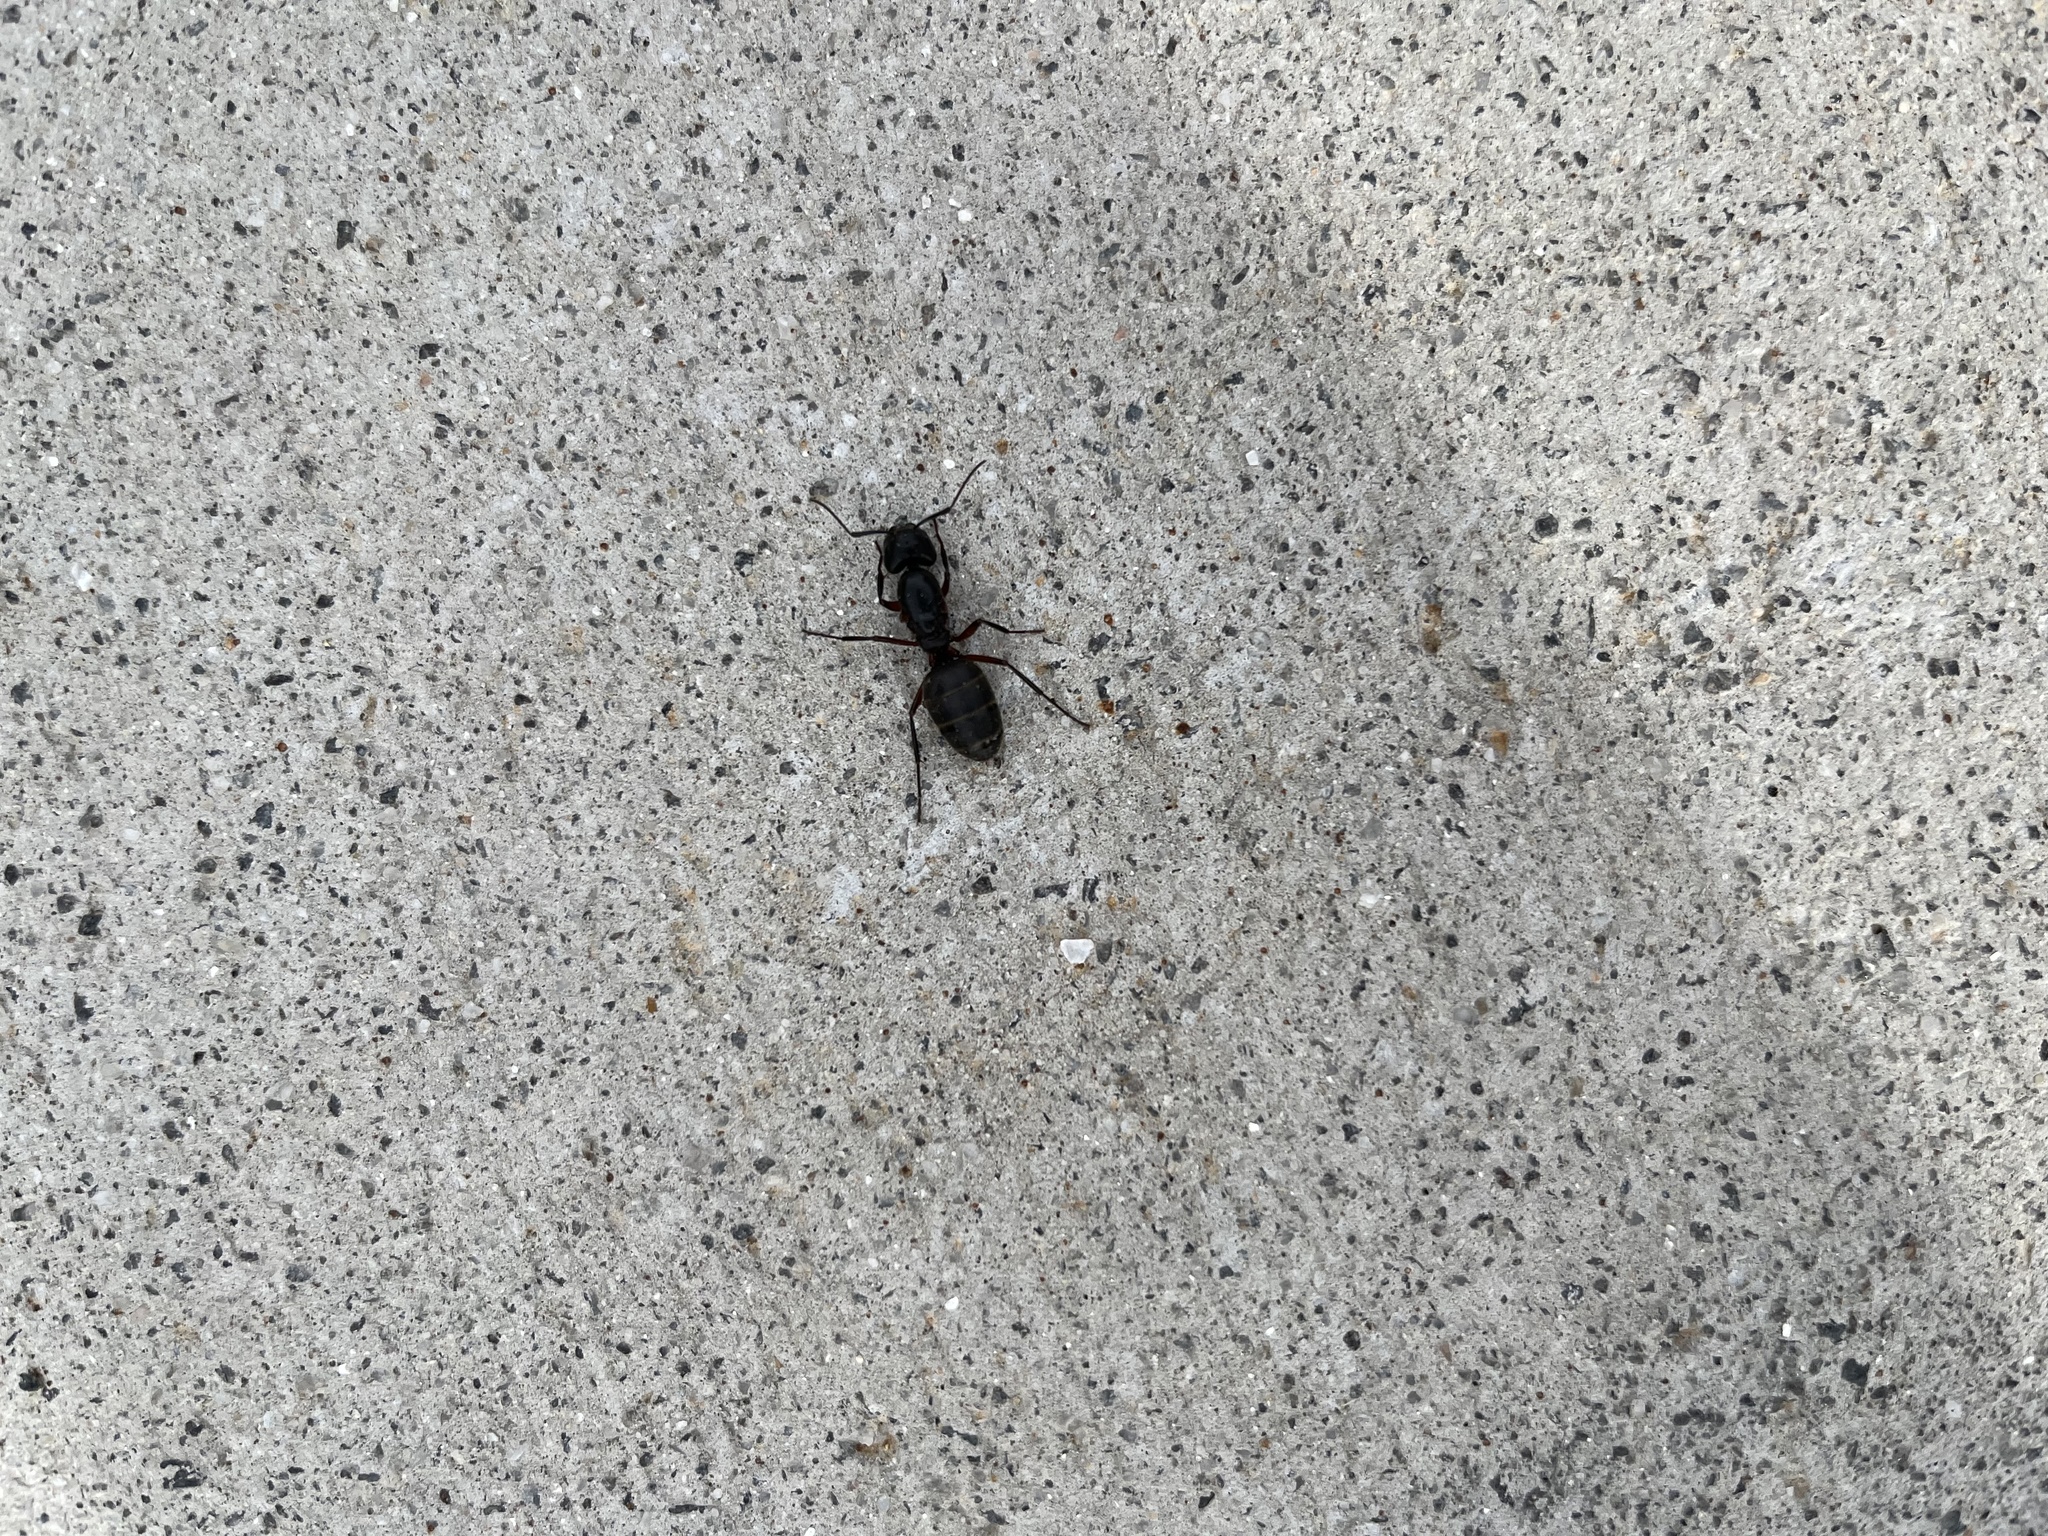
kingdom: Animalia
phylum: Arthropoda
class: Insecta
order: Hymenoptera
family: Formicidae
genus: Camponotus
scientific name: Camponotus chromaiodes
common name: Red carpenter ant
